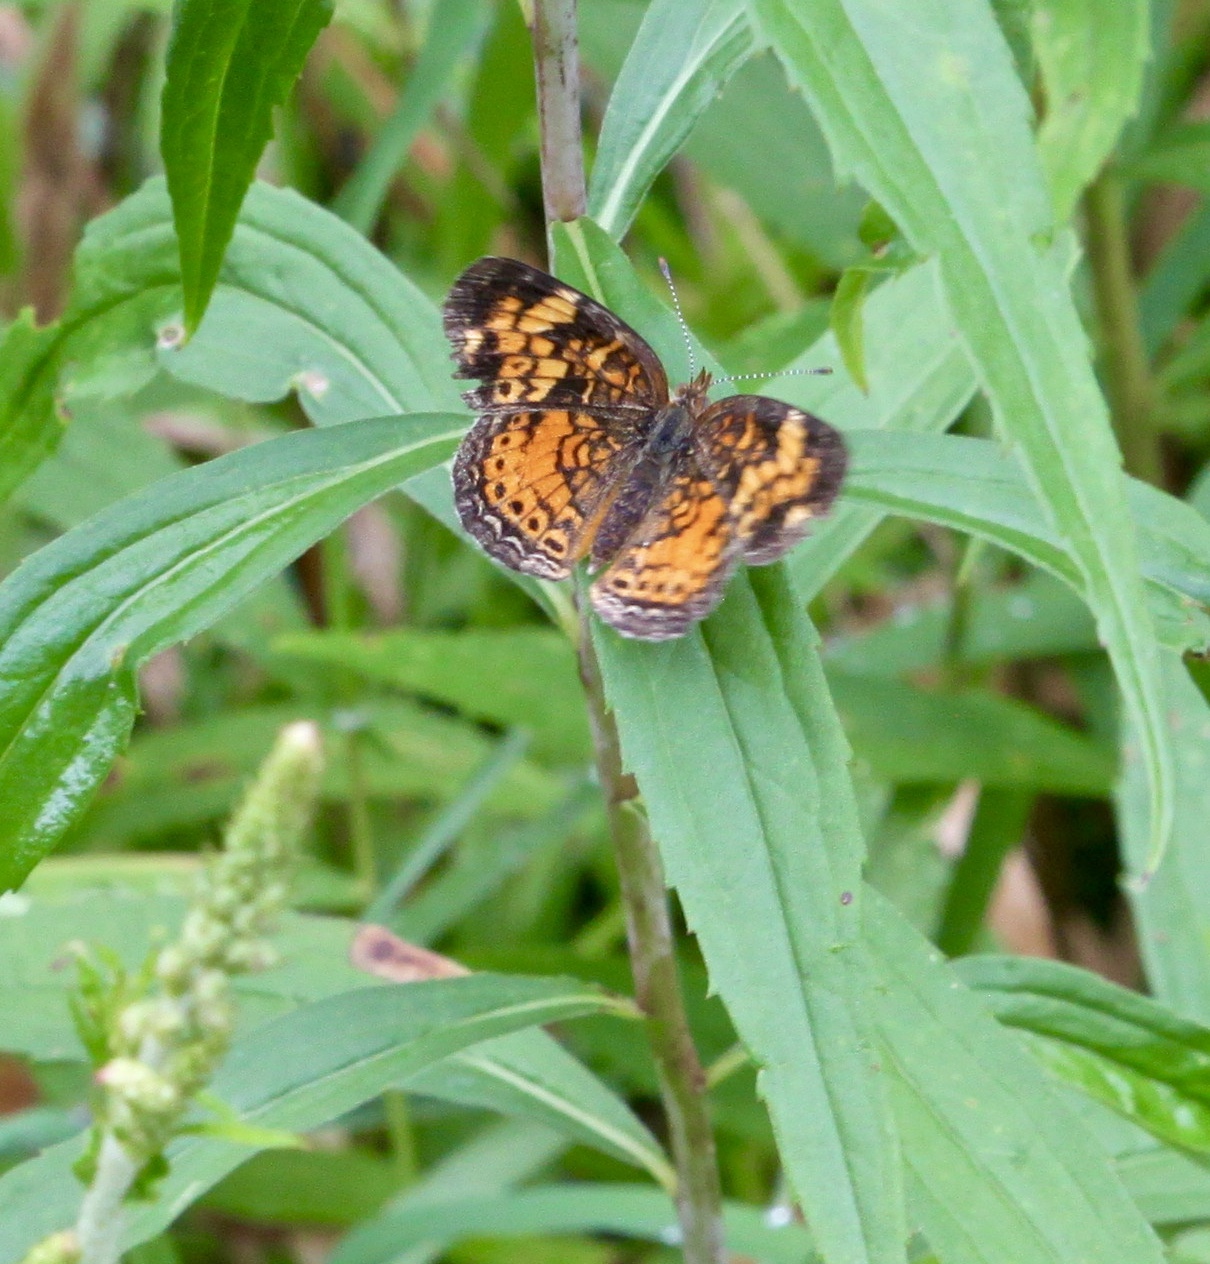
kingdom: Animalia
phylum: Arthropoda
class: Insecta
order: Lepidoptera
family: Nymphalidae
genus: Phyciodes
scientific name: Phyciodes tharos
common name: Pearl crescent
